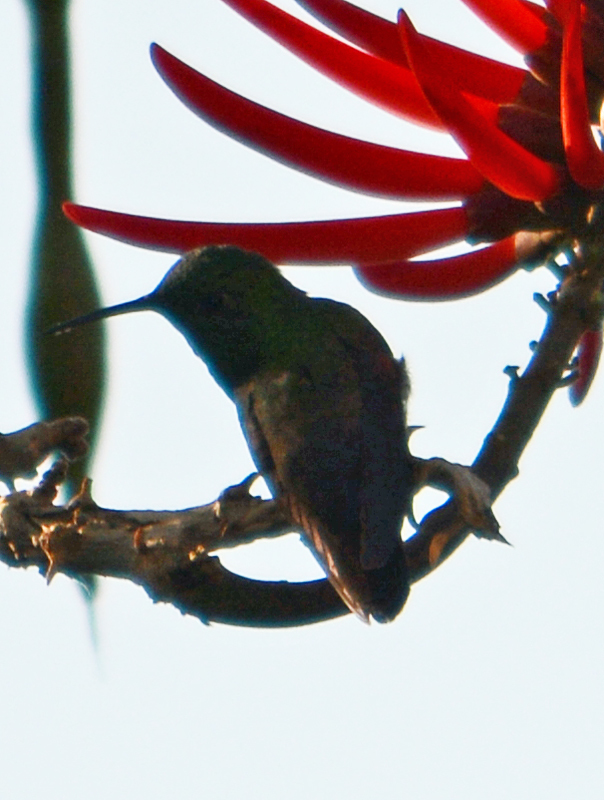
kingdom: Animalia
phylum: Chordata
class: Aves
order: Apodiformes
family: Trochilidae
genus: Saucerottia
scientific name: Saucerottia beryllina
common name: Berylline hummingbird
